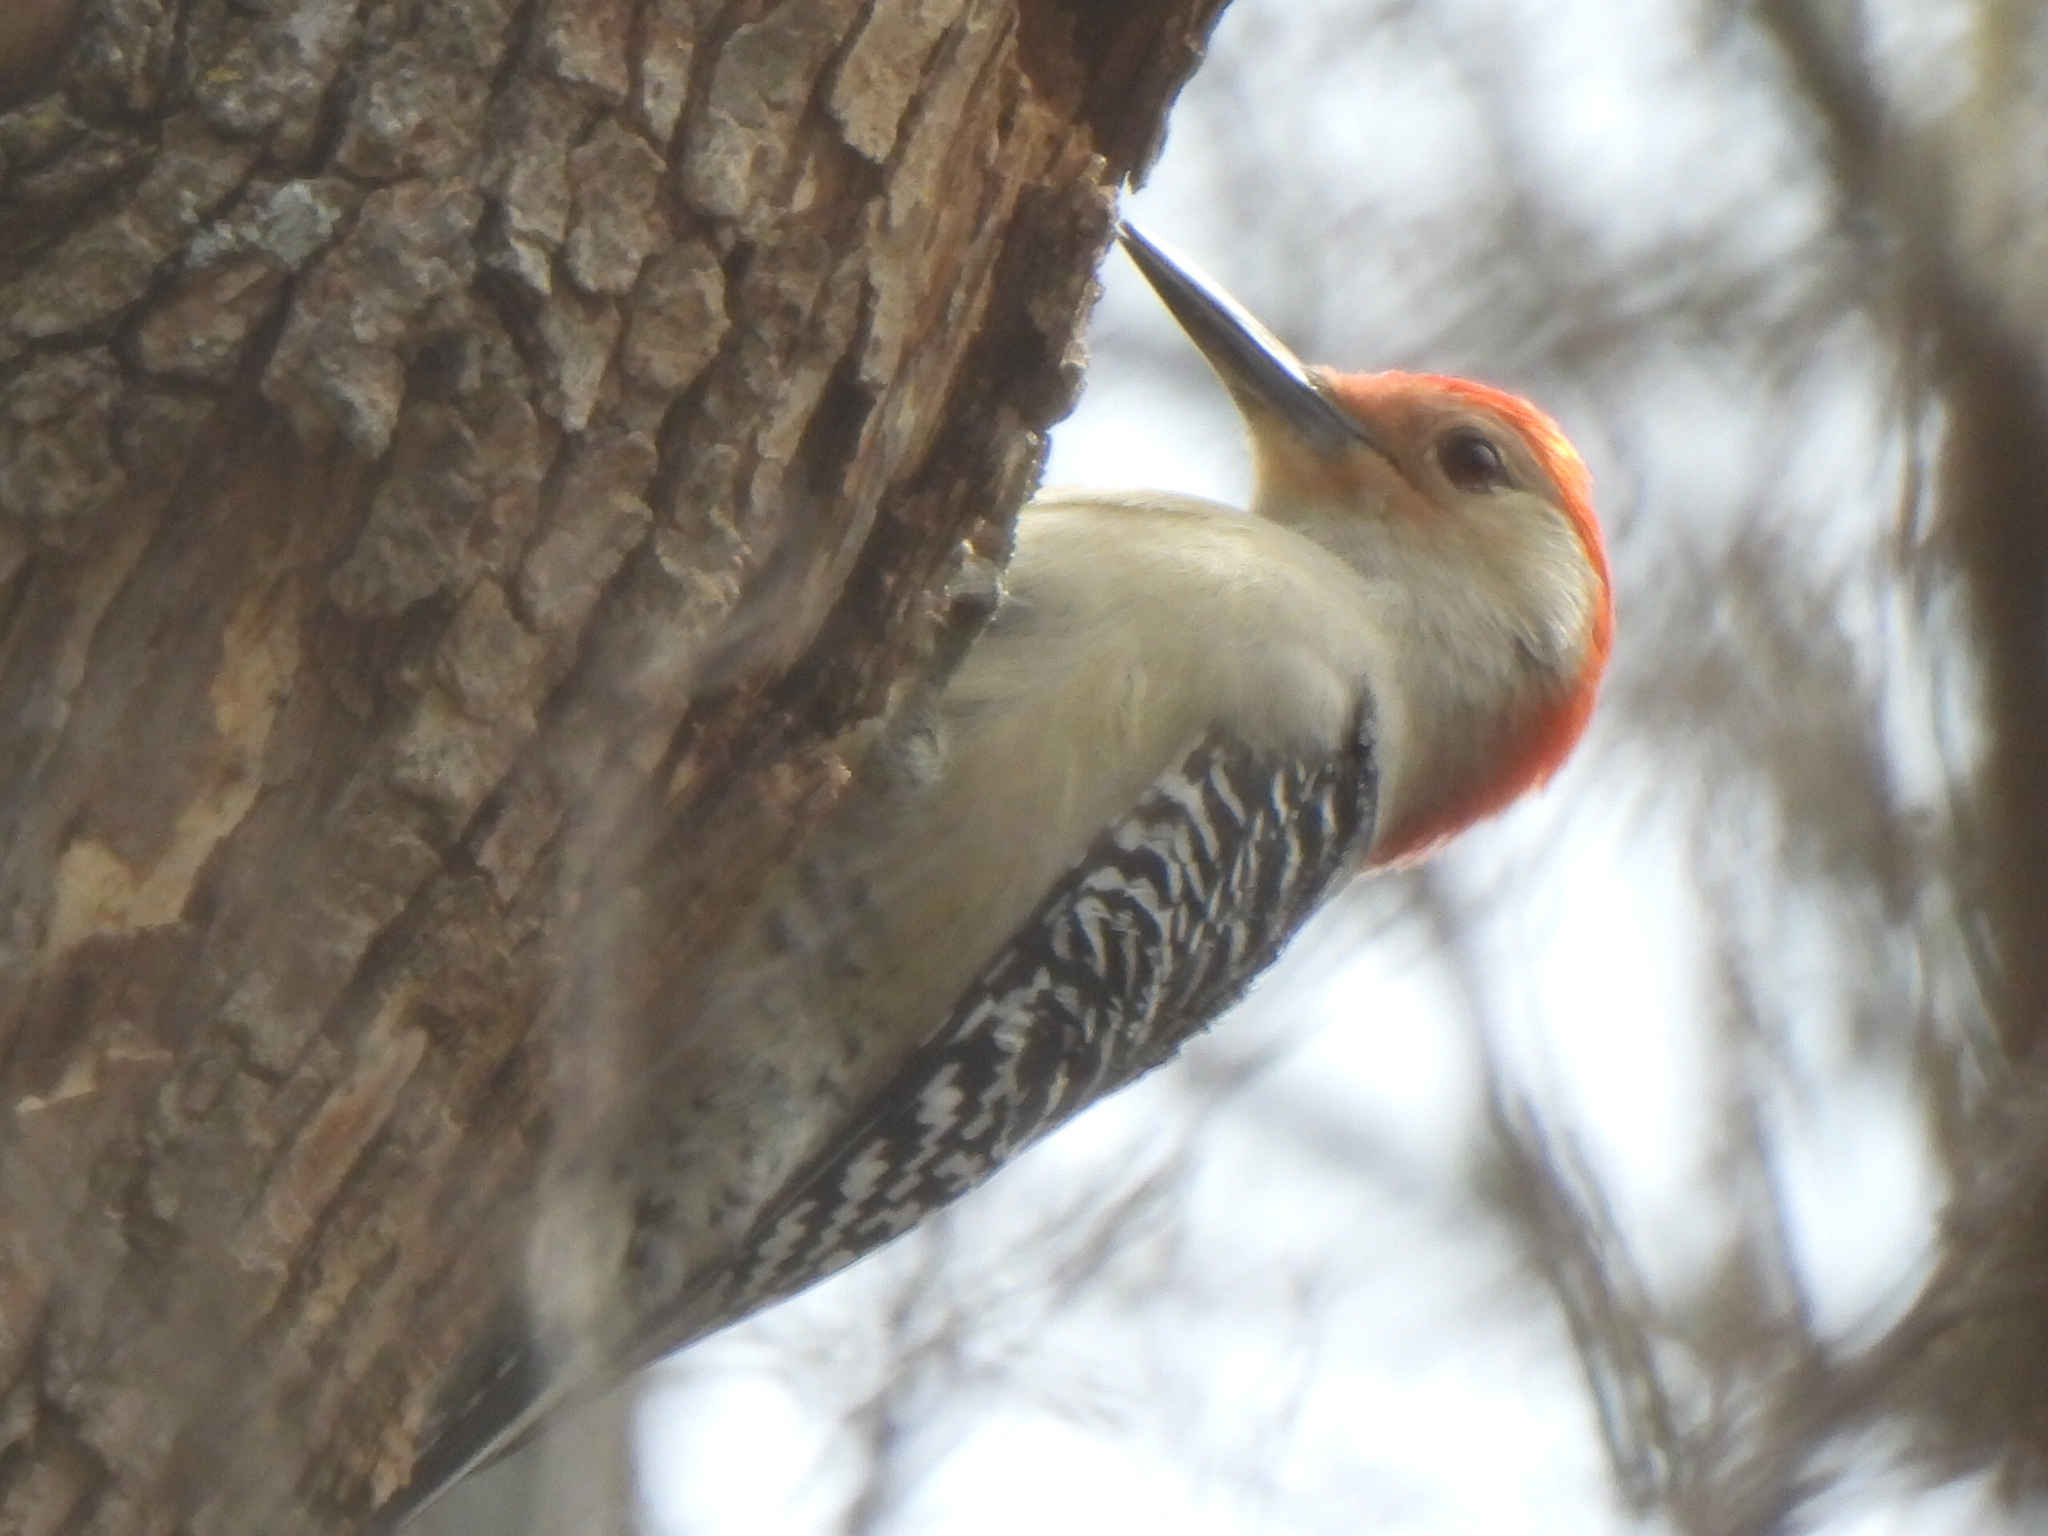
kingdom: Animalia
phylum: Chordata
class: Aves
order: Piciformes
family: Picidae
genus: Melanerpes
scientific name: Melanerpes carolinus
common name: Red-bellied woodpecker
